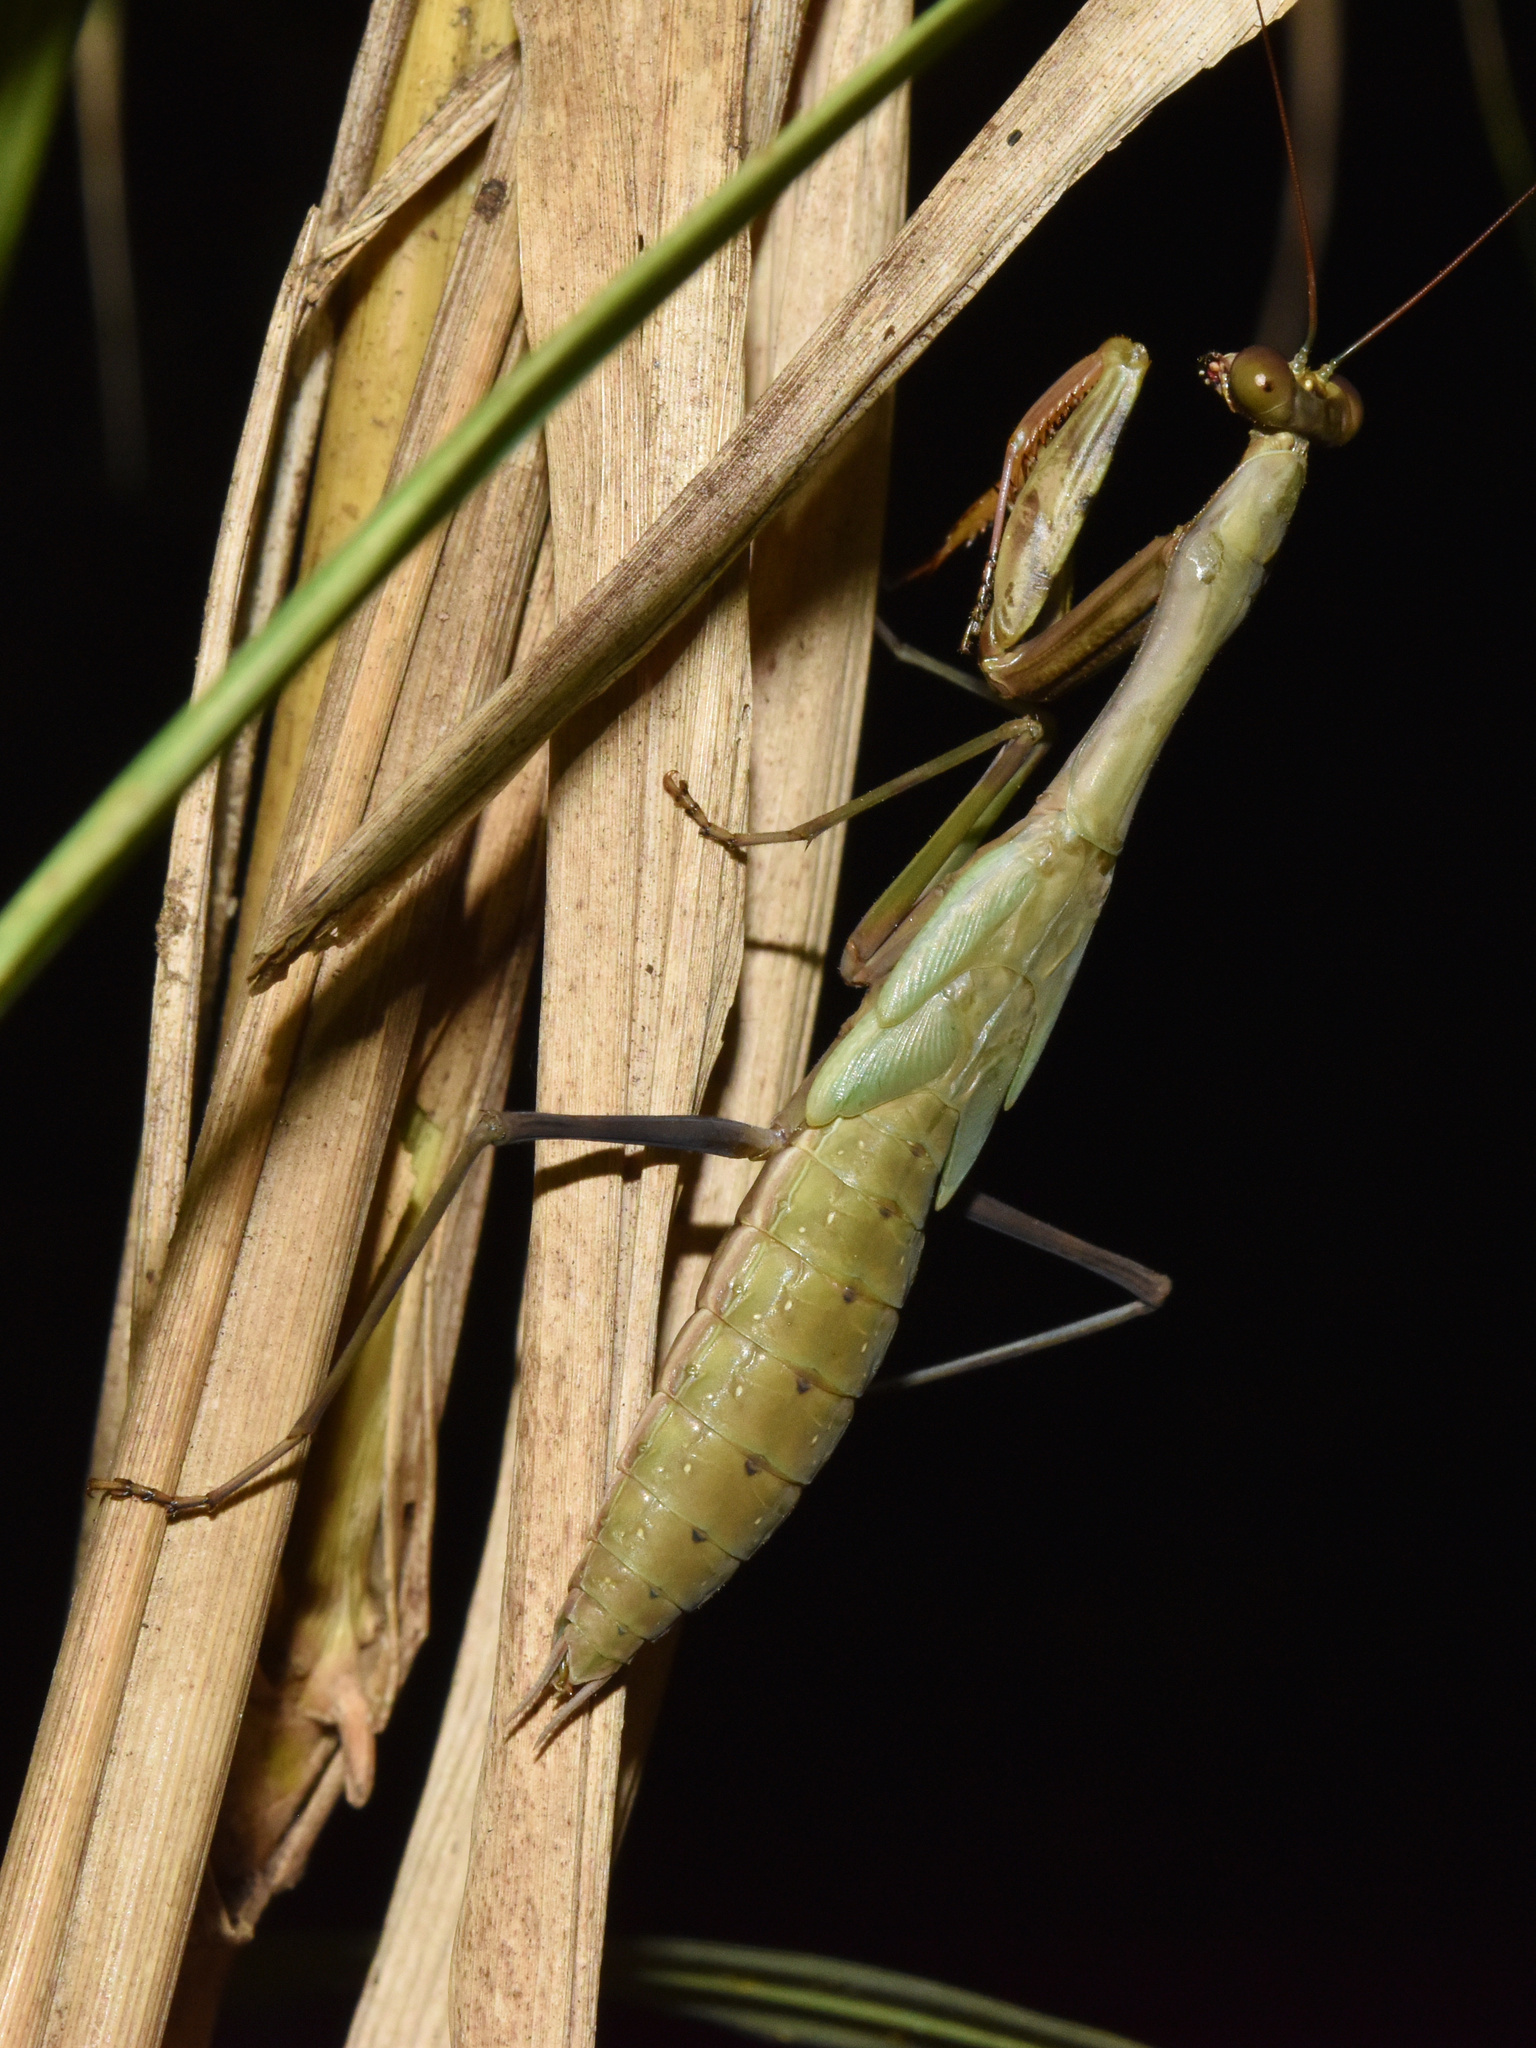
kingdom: Animalia
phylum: Arthropoda
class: Insecta
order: Mantodea
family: Mantidae
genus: Polyspilota
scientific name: Polyspilota aeruginosa
